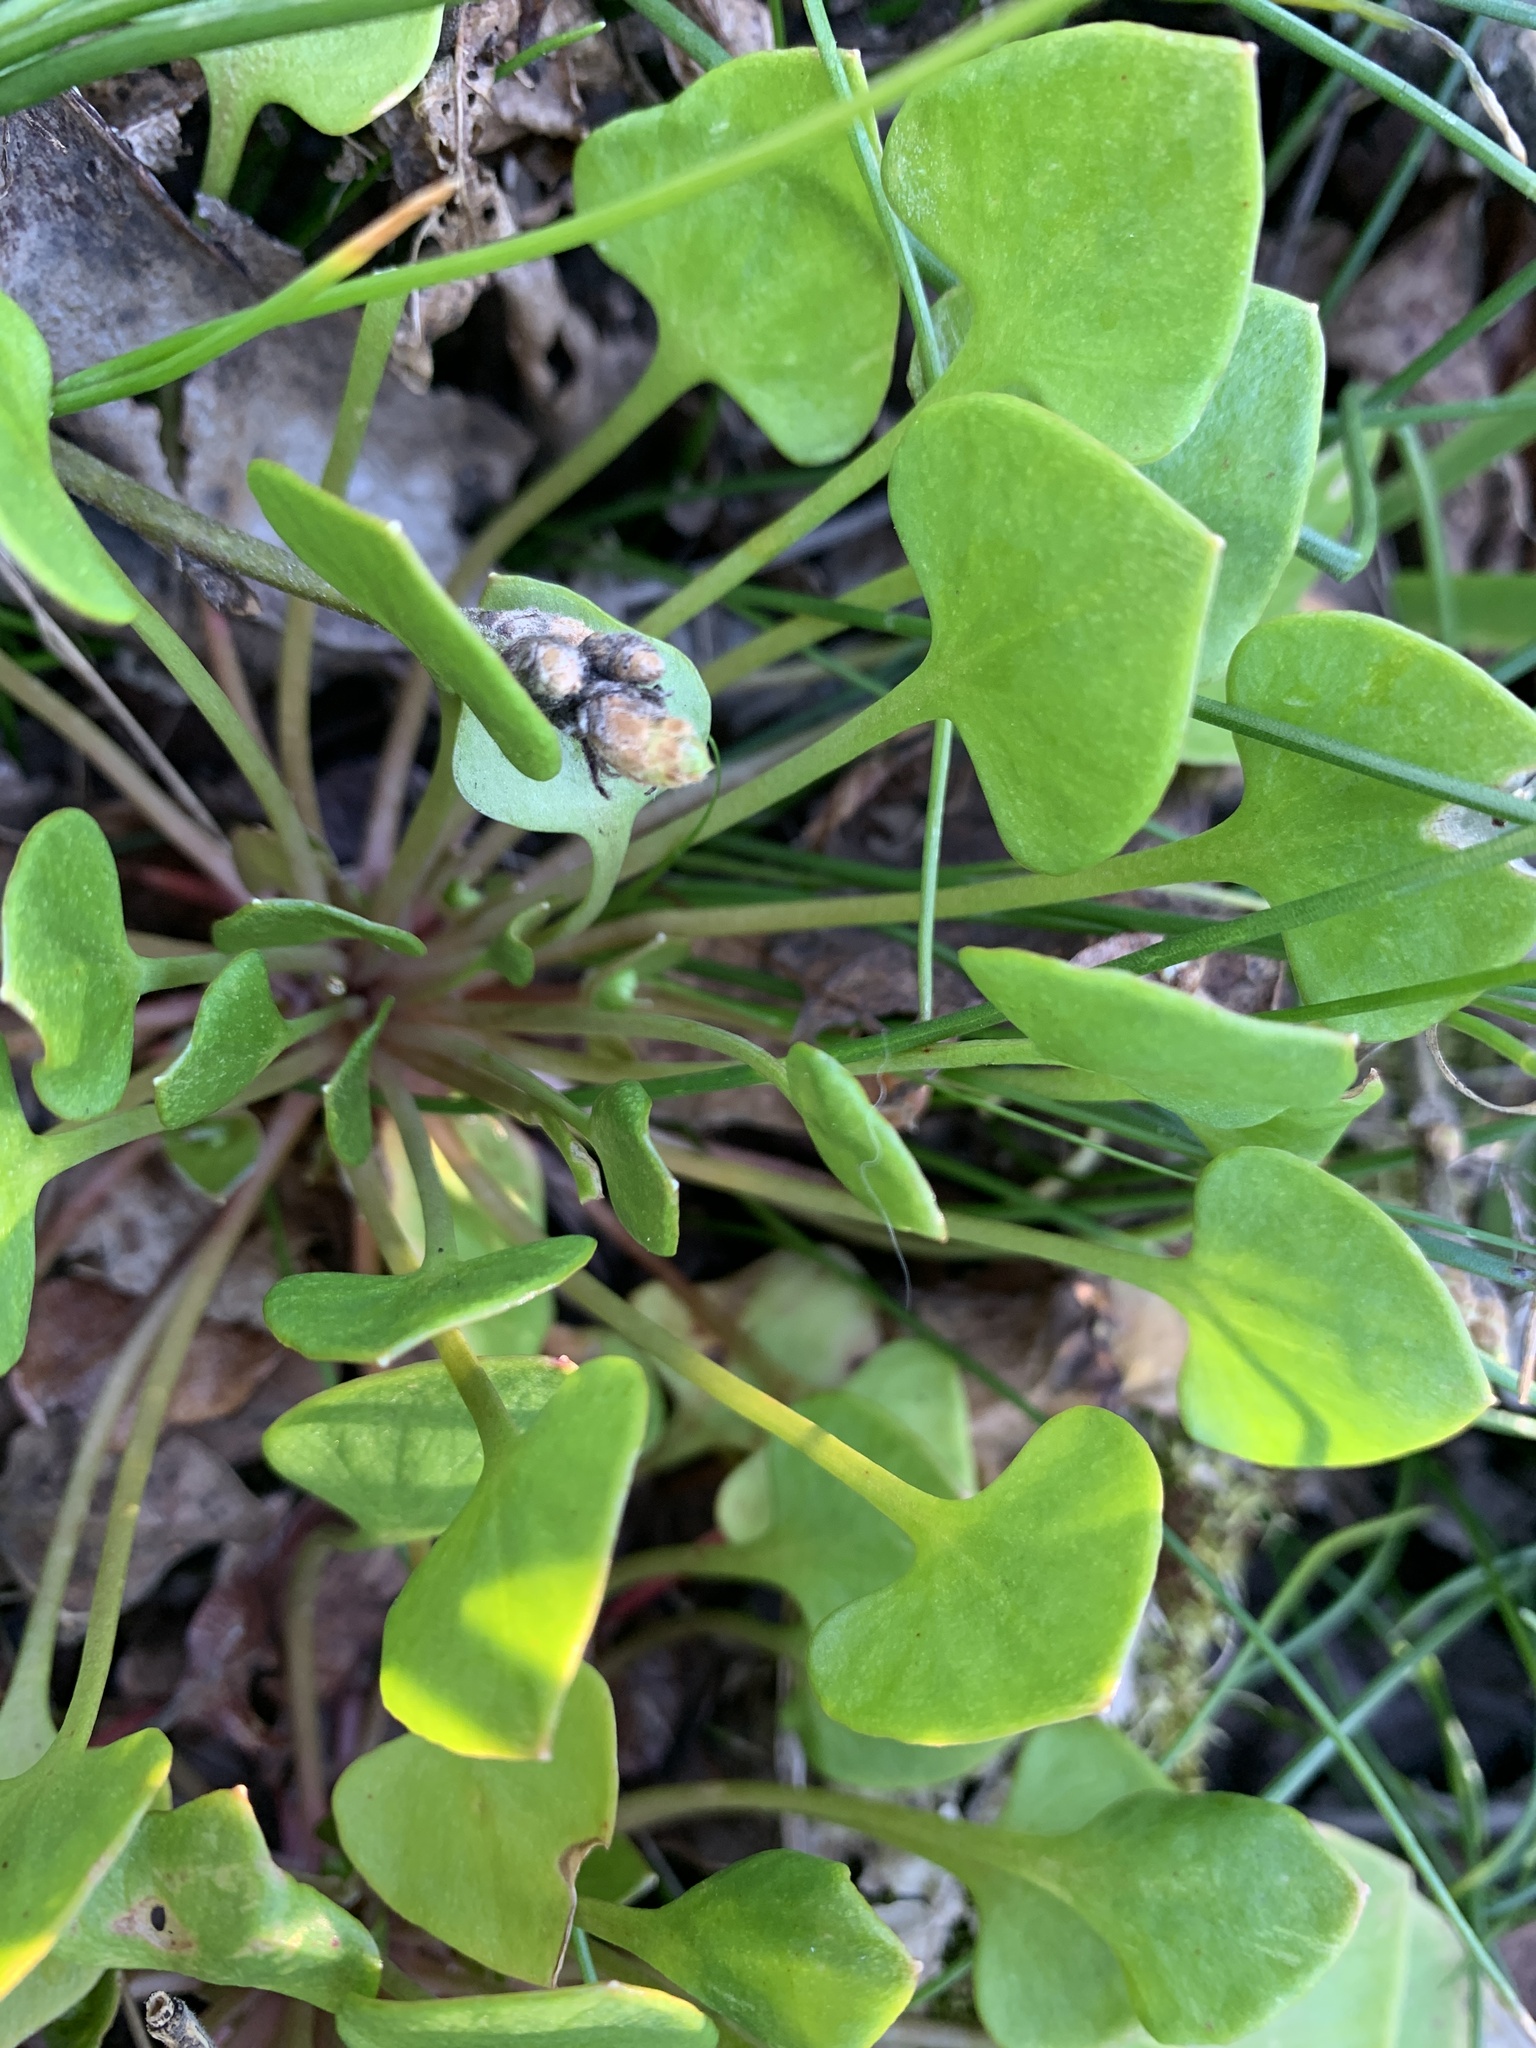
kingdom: Plantae
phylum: Tracheophyta
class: Magnoliopsida
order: Caryophyllales
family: Montiaceae
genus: Claytonia
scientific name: Claytonia perfoliata
